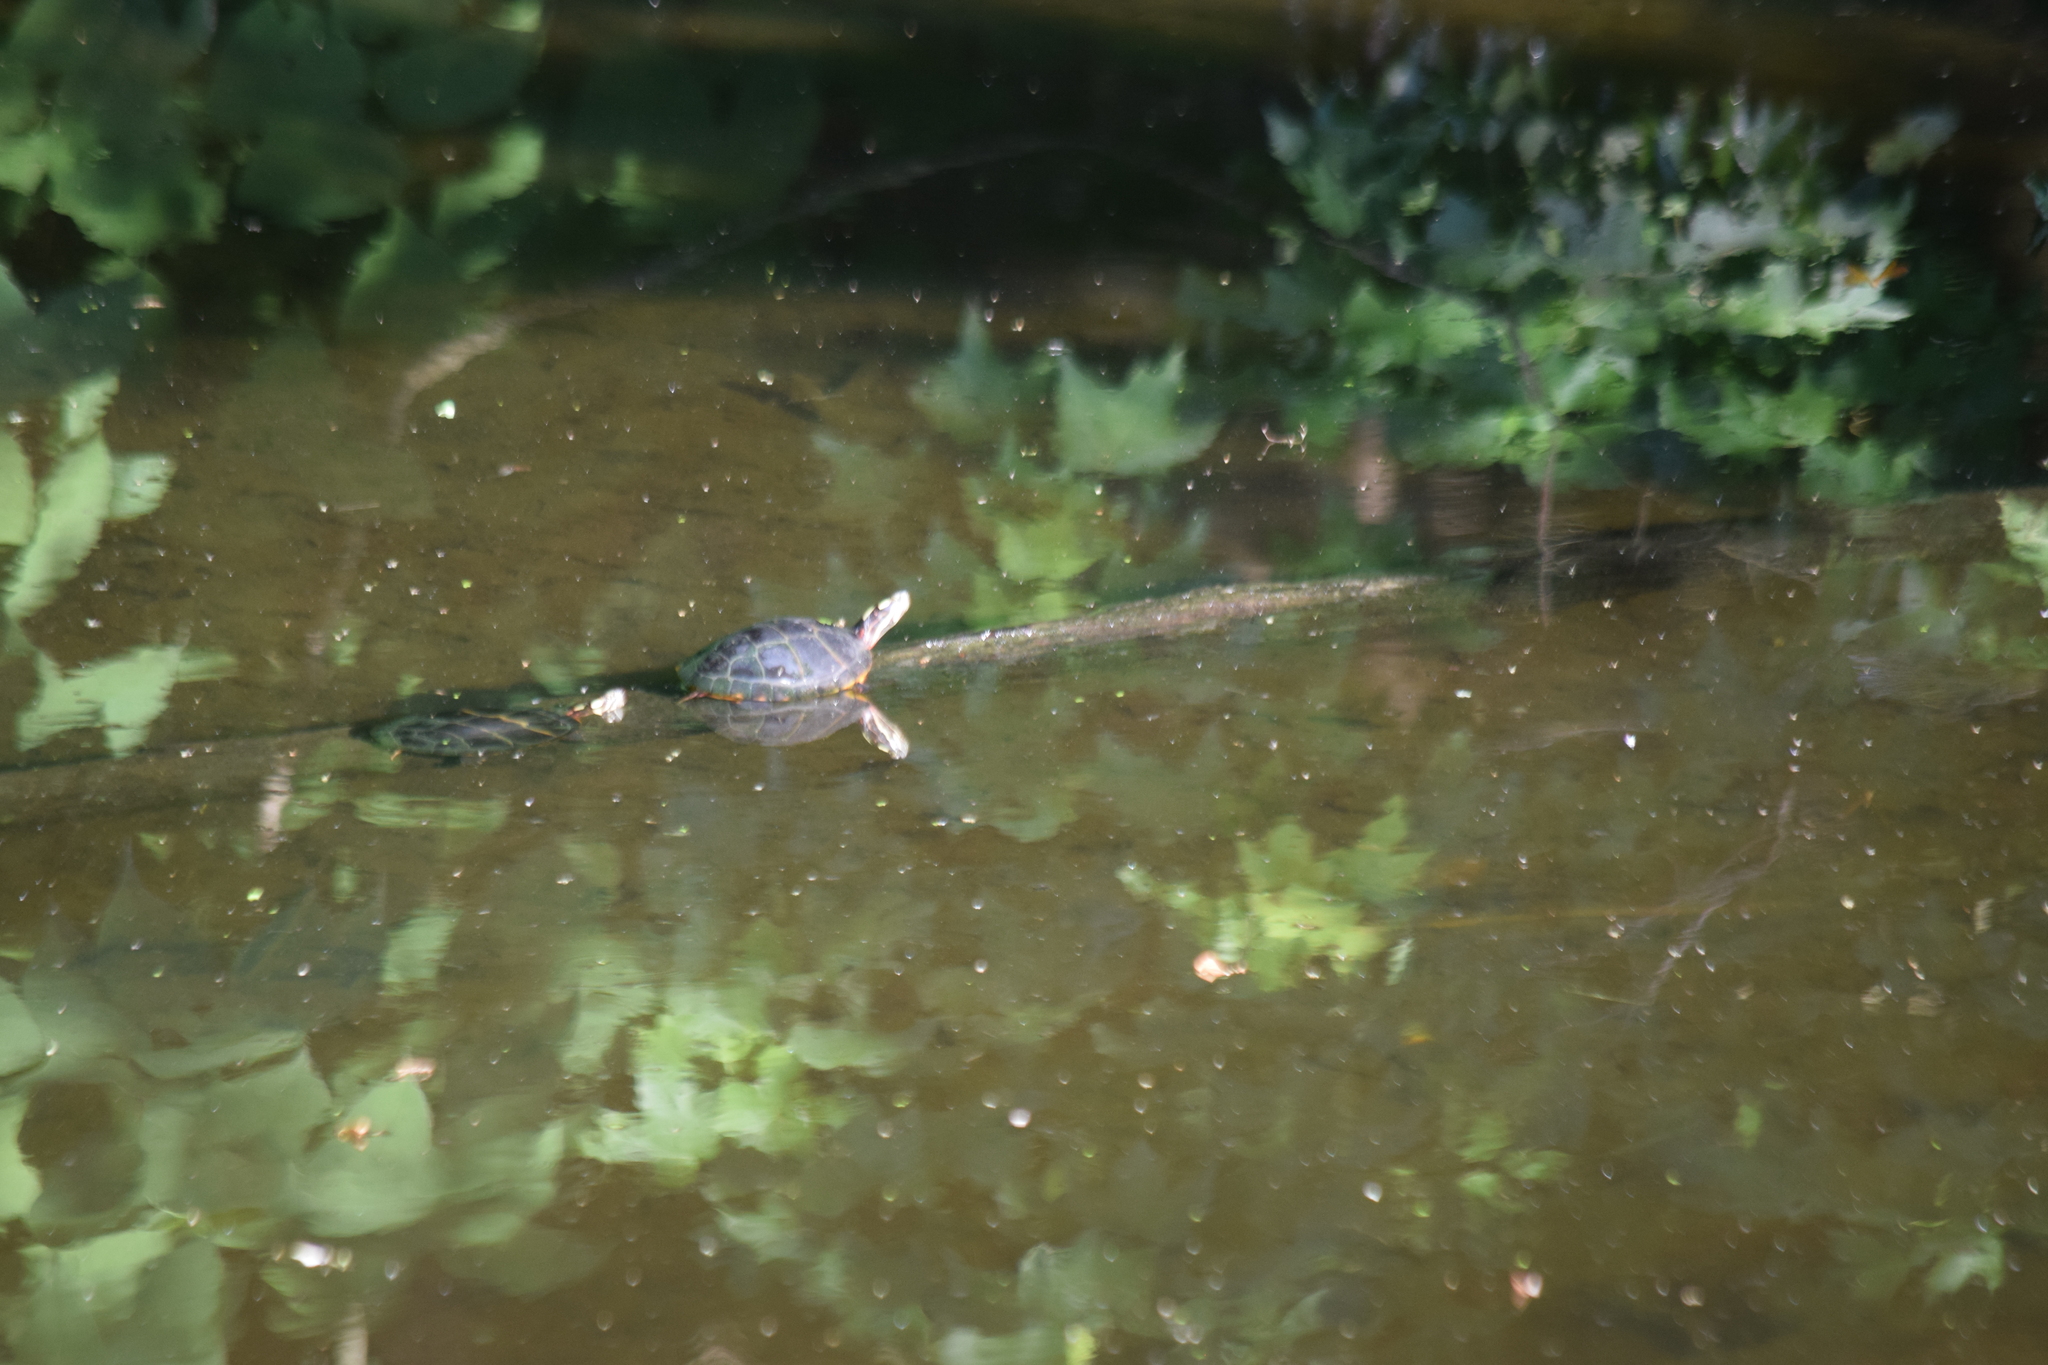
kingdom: Animalia
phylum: Chordata
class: Testudines
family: Emydidae
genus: Chrysemys
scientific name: Chrysemys picta
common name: Painted turtle
